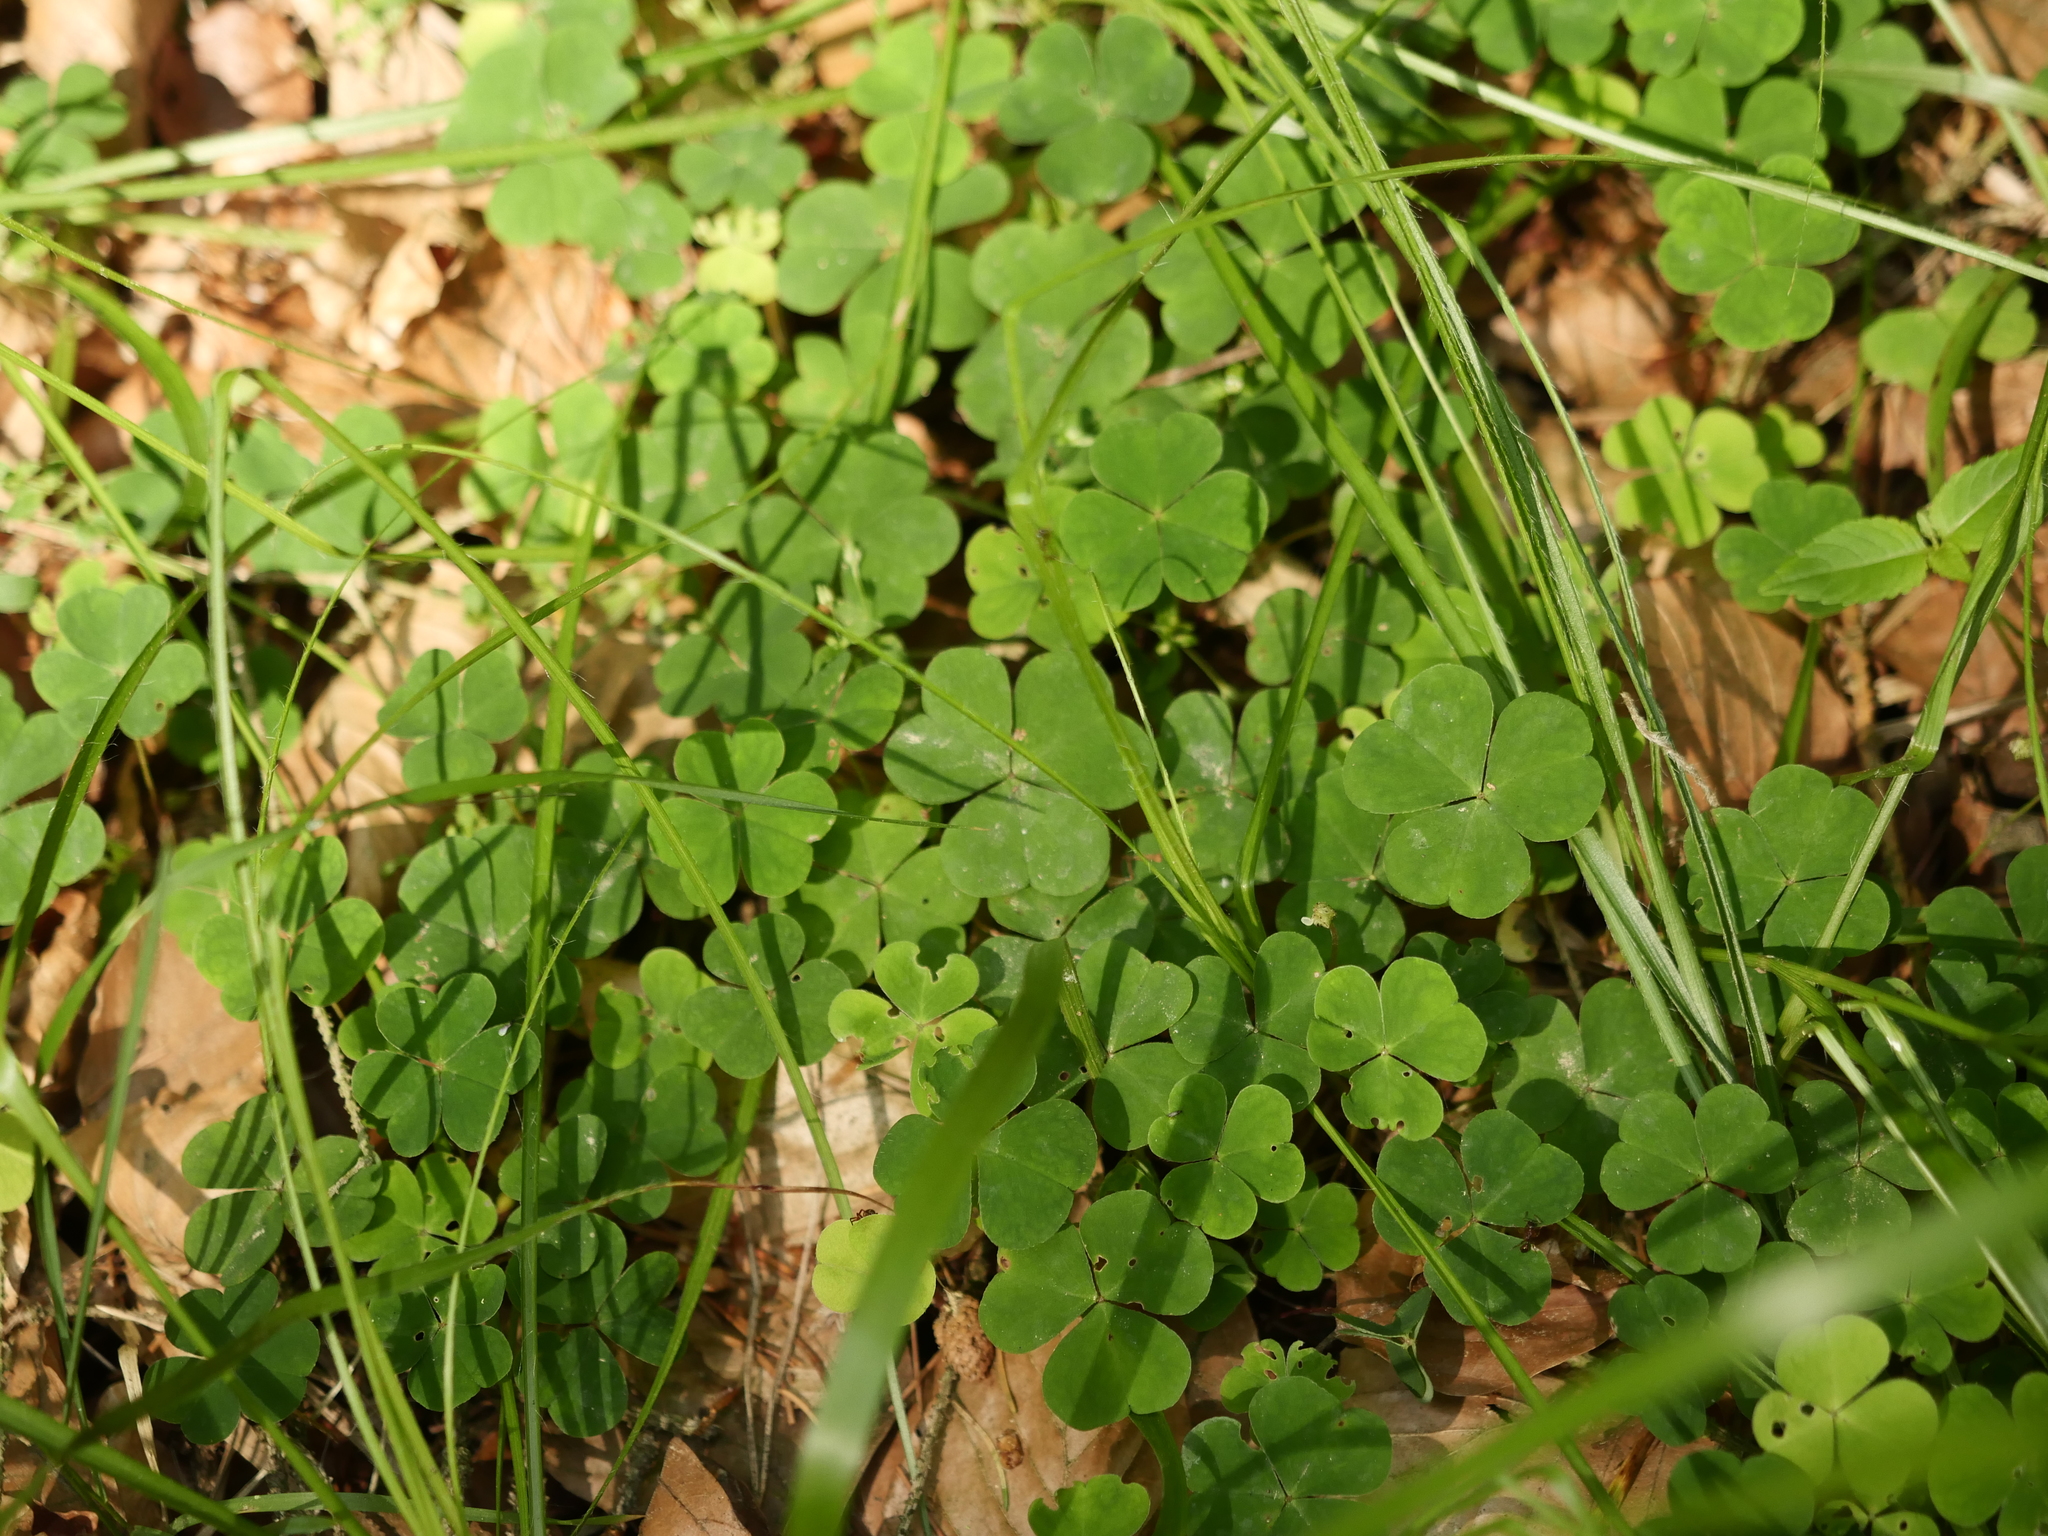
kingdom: Plantae
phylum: Tracheophyta
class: Magnoliopsida
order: Oxalidales
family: Oxalidaceae
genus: Oxalis
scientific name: Oxalis acetosella
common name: Wood-sorrel
